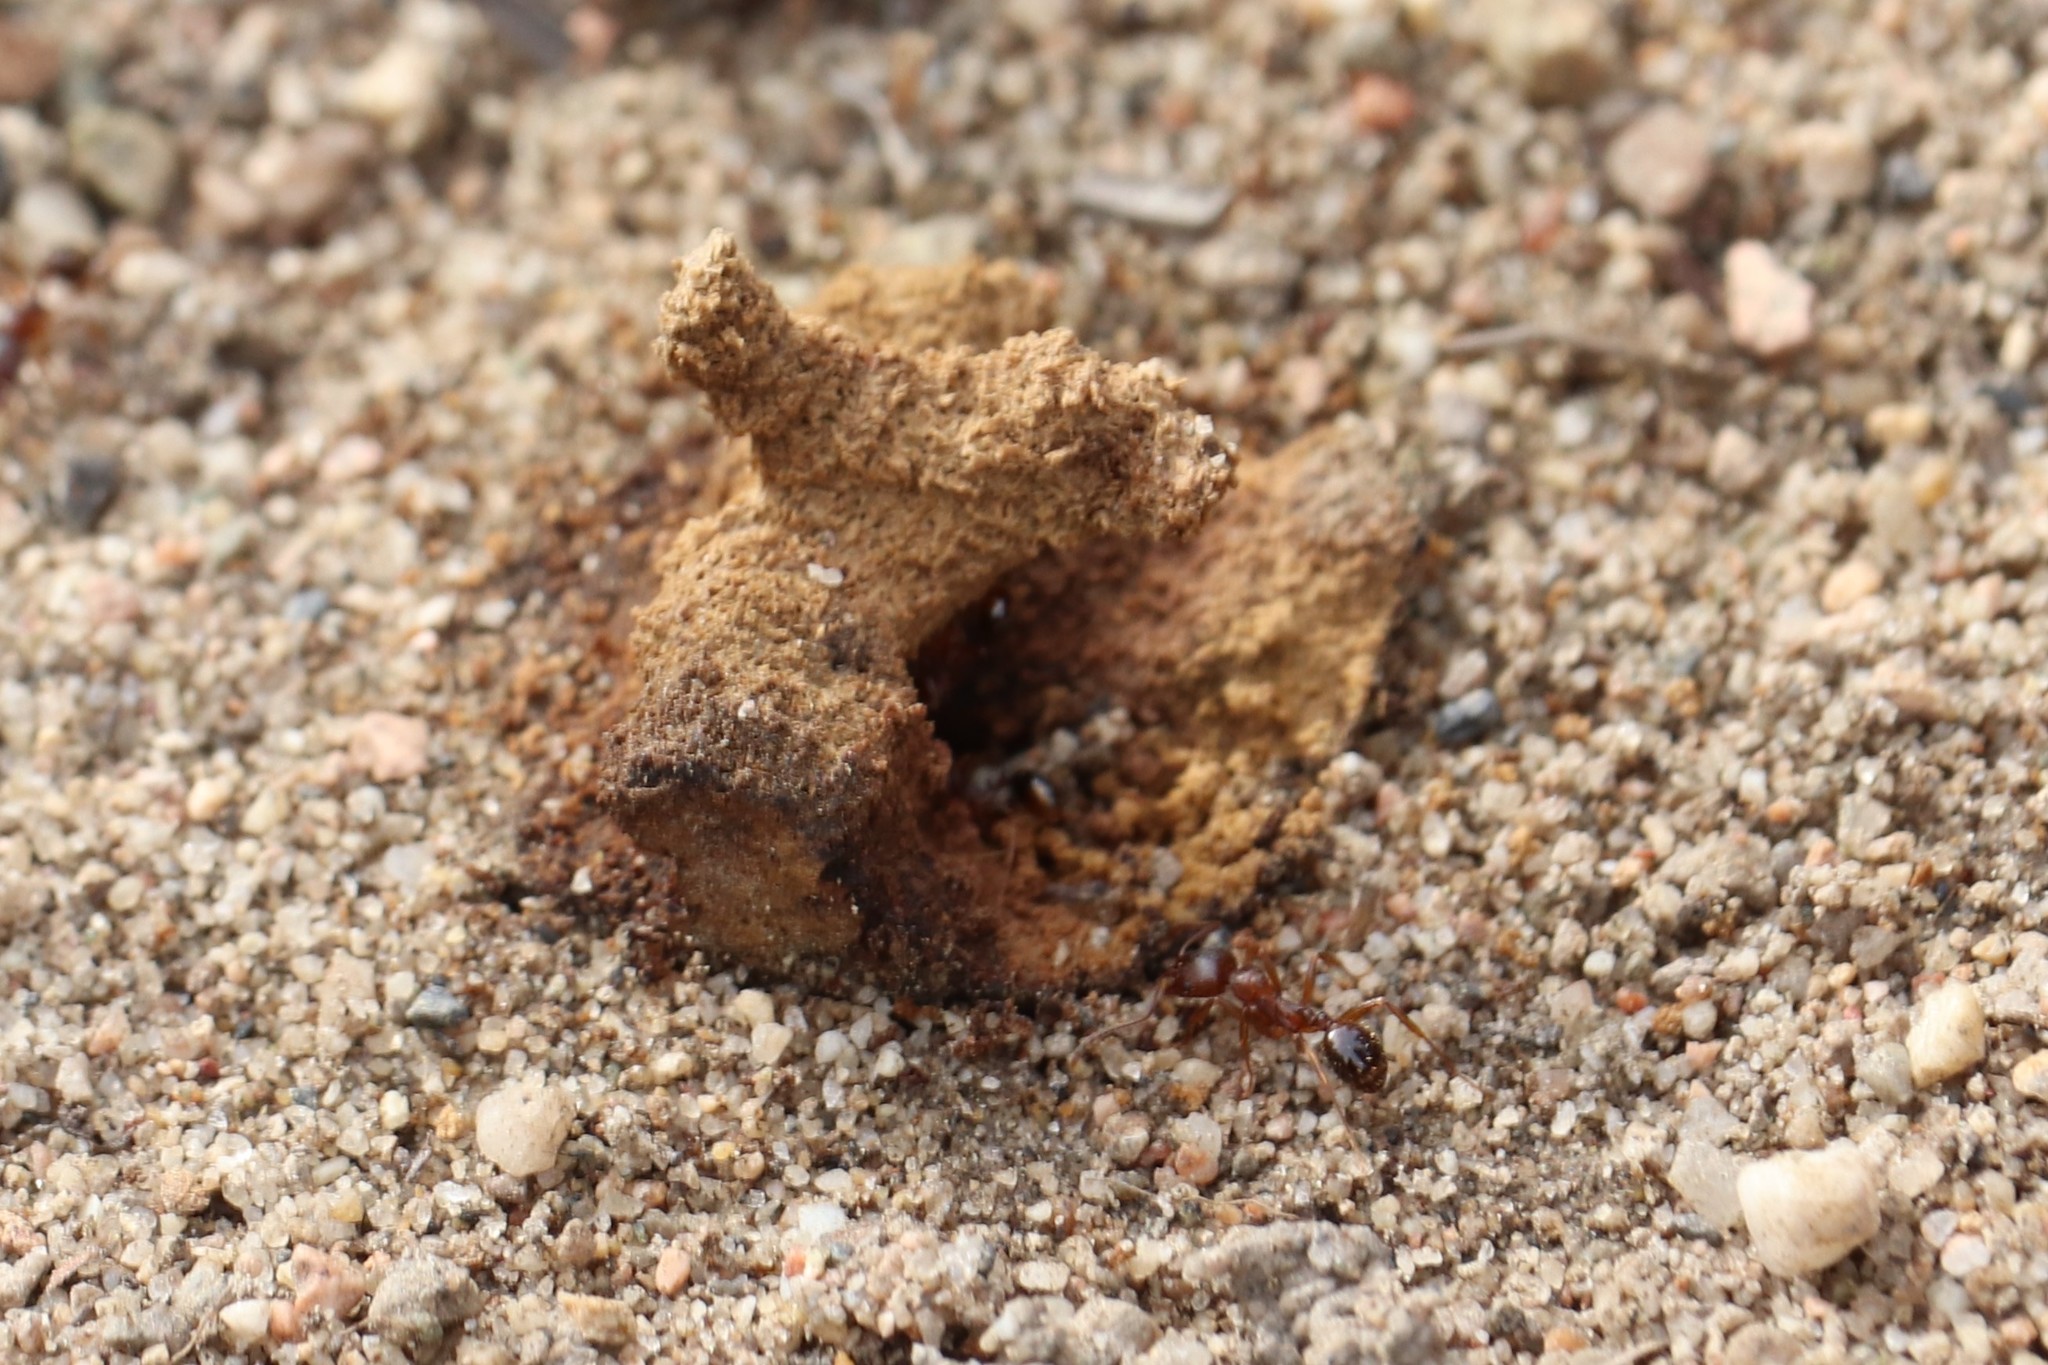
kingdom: Animalia
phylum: Arthropoda
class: Insecta
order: Hymenoptera
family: Formicidae
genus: Aphaenogaster
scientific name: Aphaenogaster occidentalis
